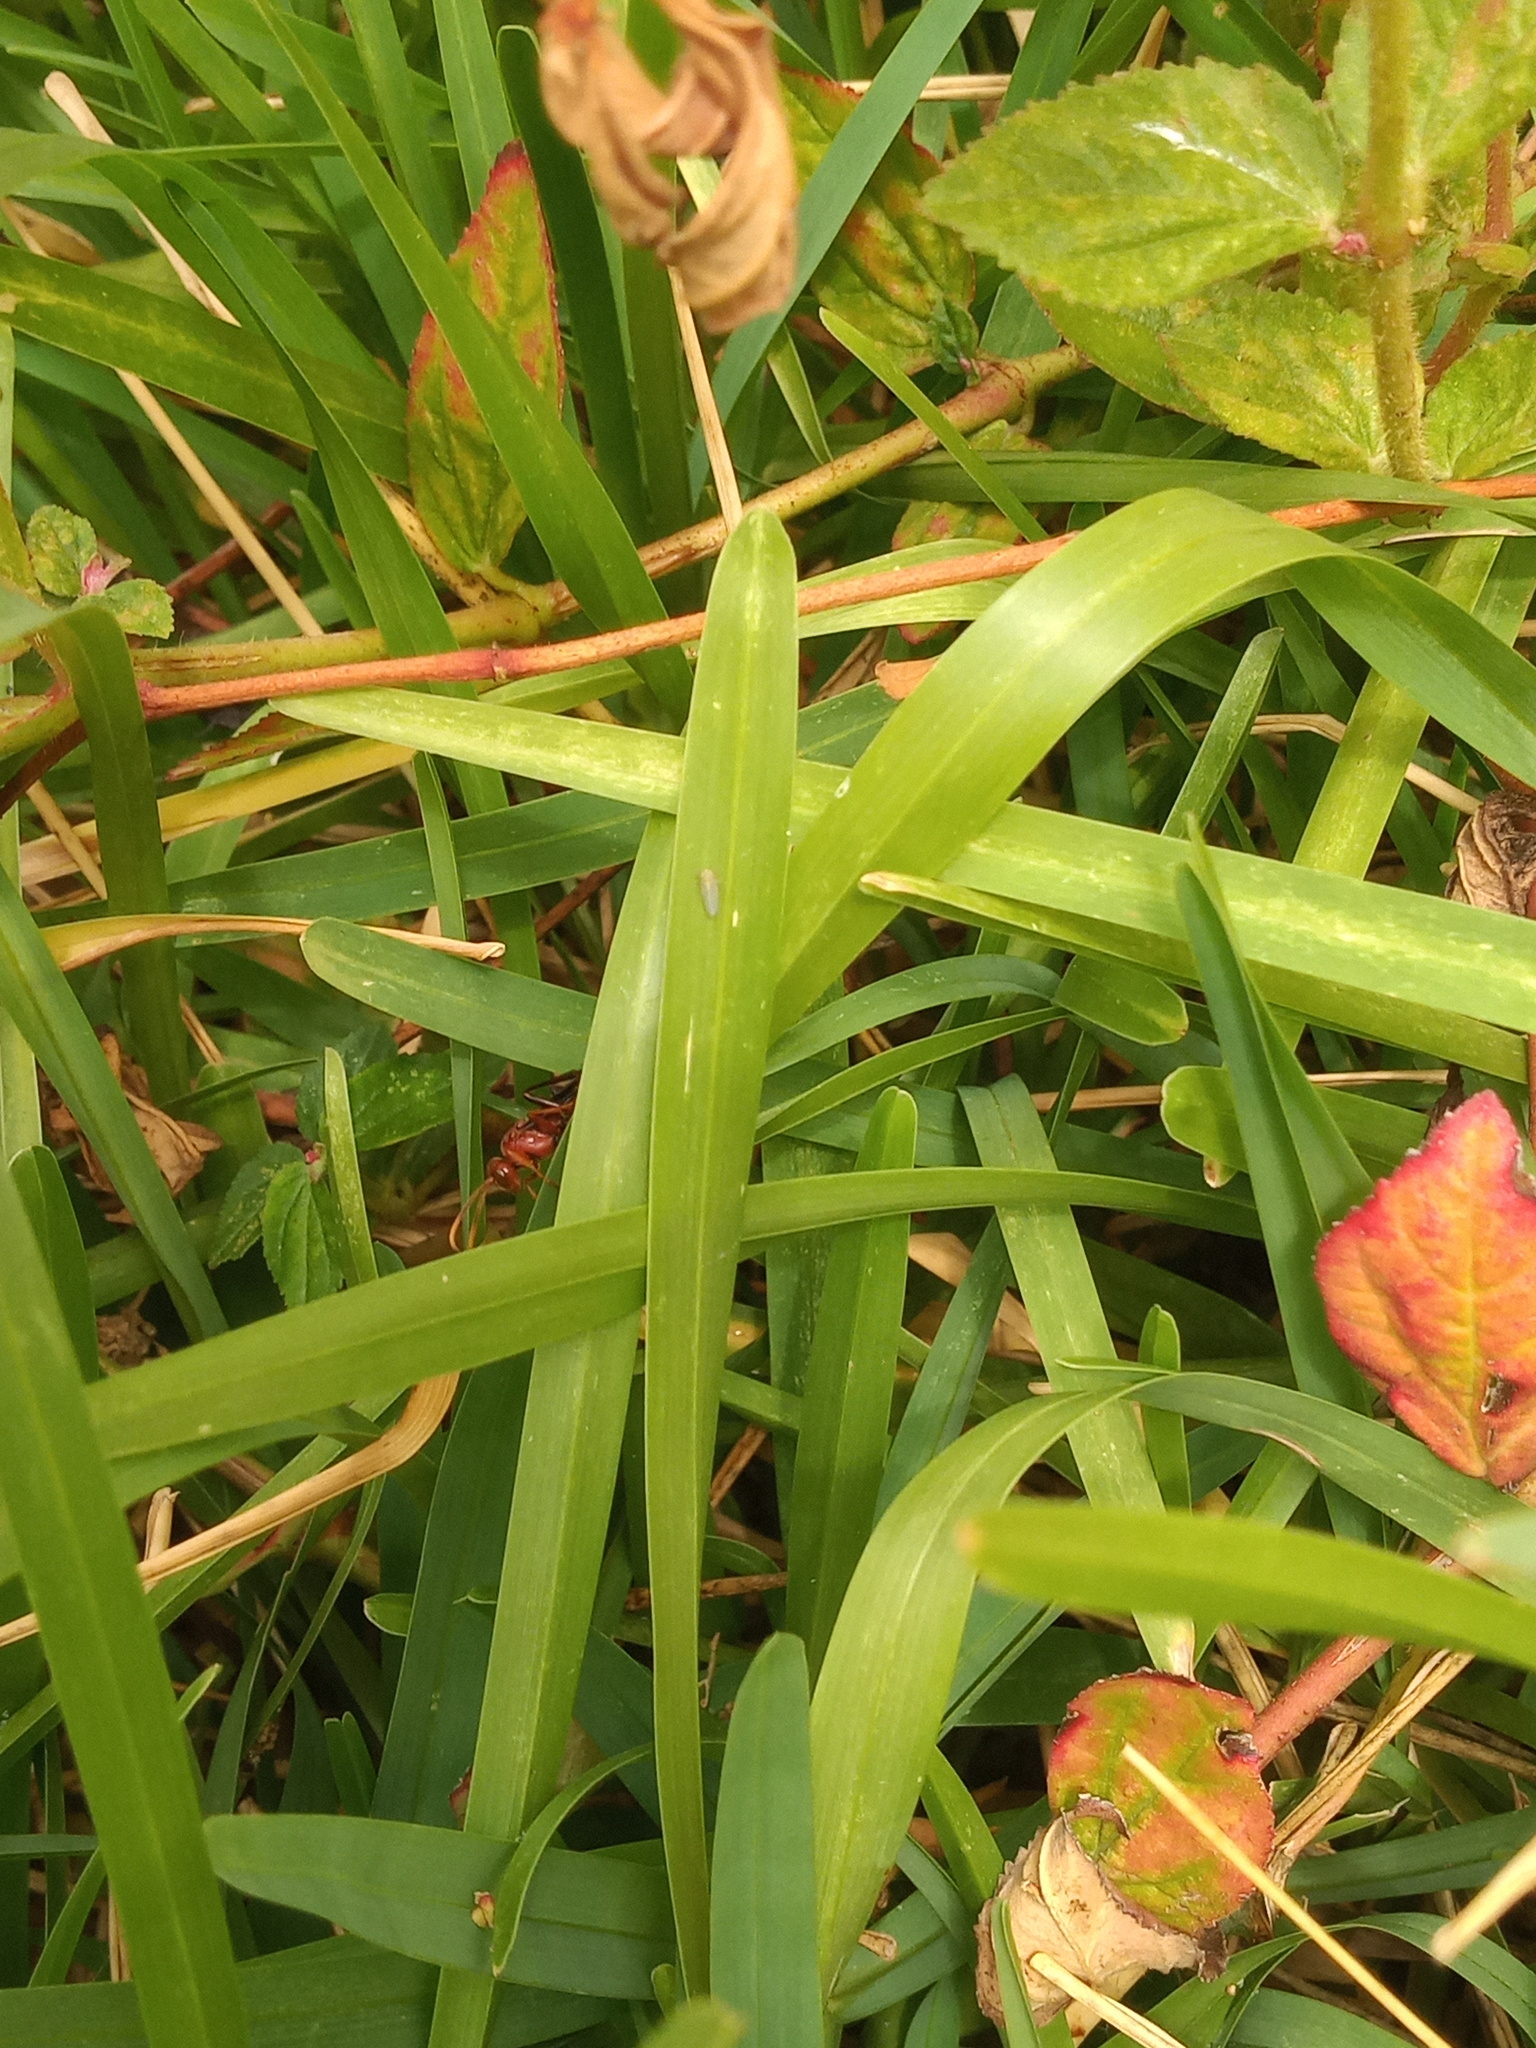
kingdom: Animalia
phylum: Arthropoda
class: Insecta
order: Hymenoptera
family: Ichneumonidae
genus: Trogomorpha
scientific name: Trogomorpha trogiformis
